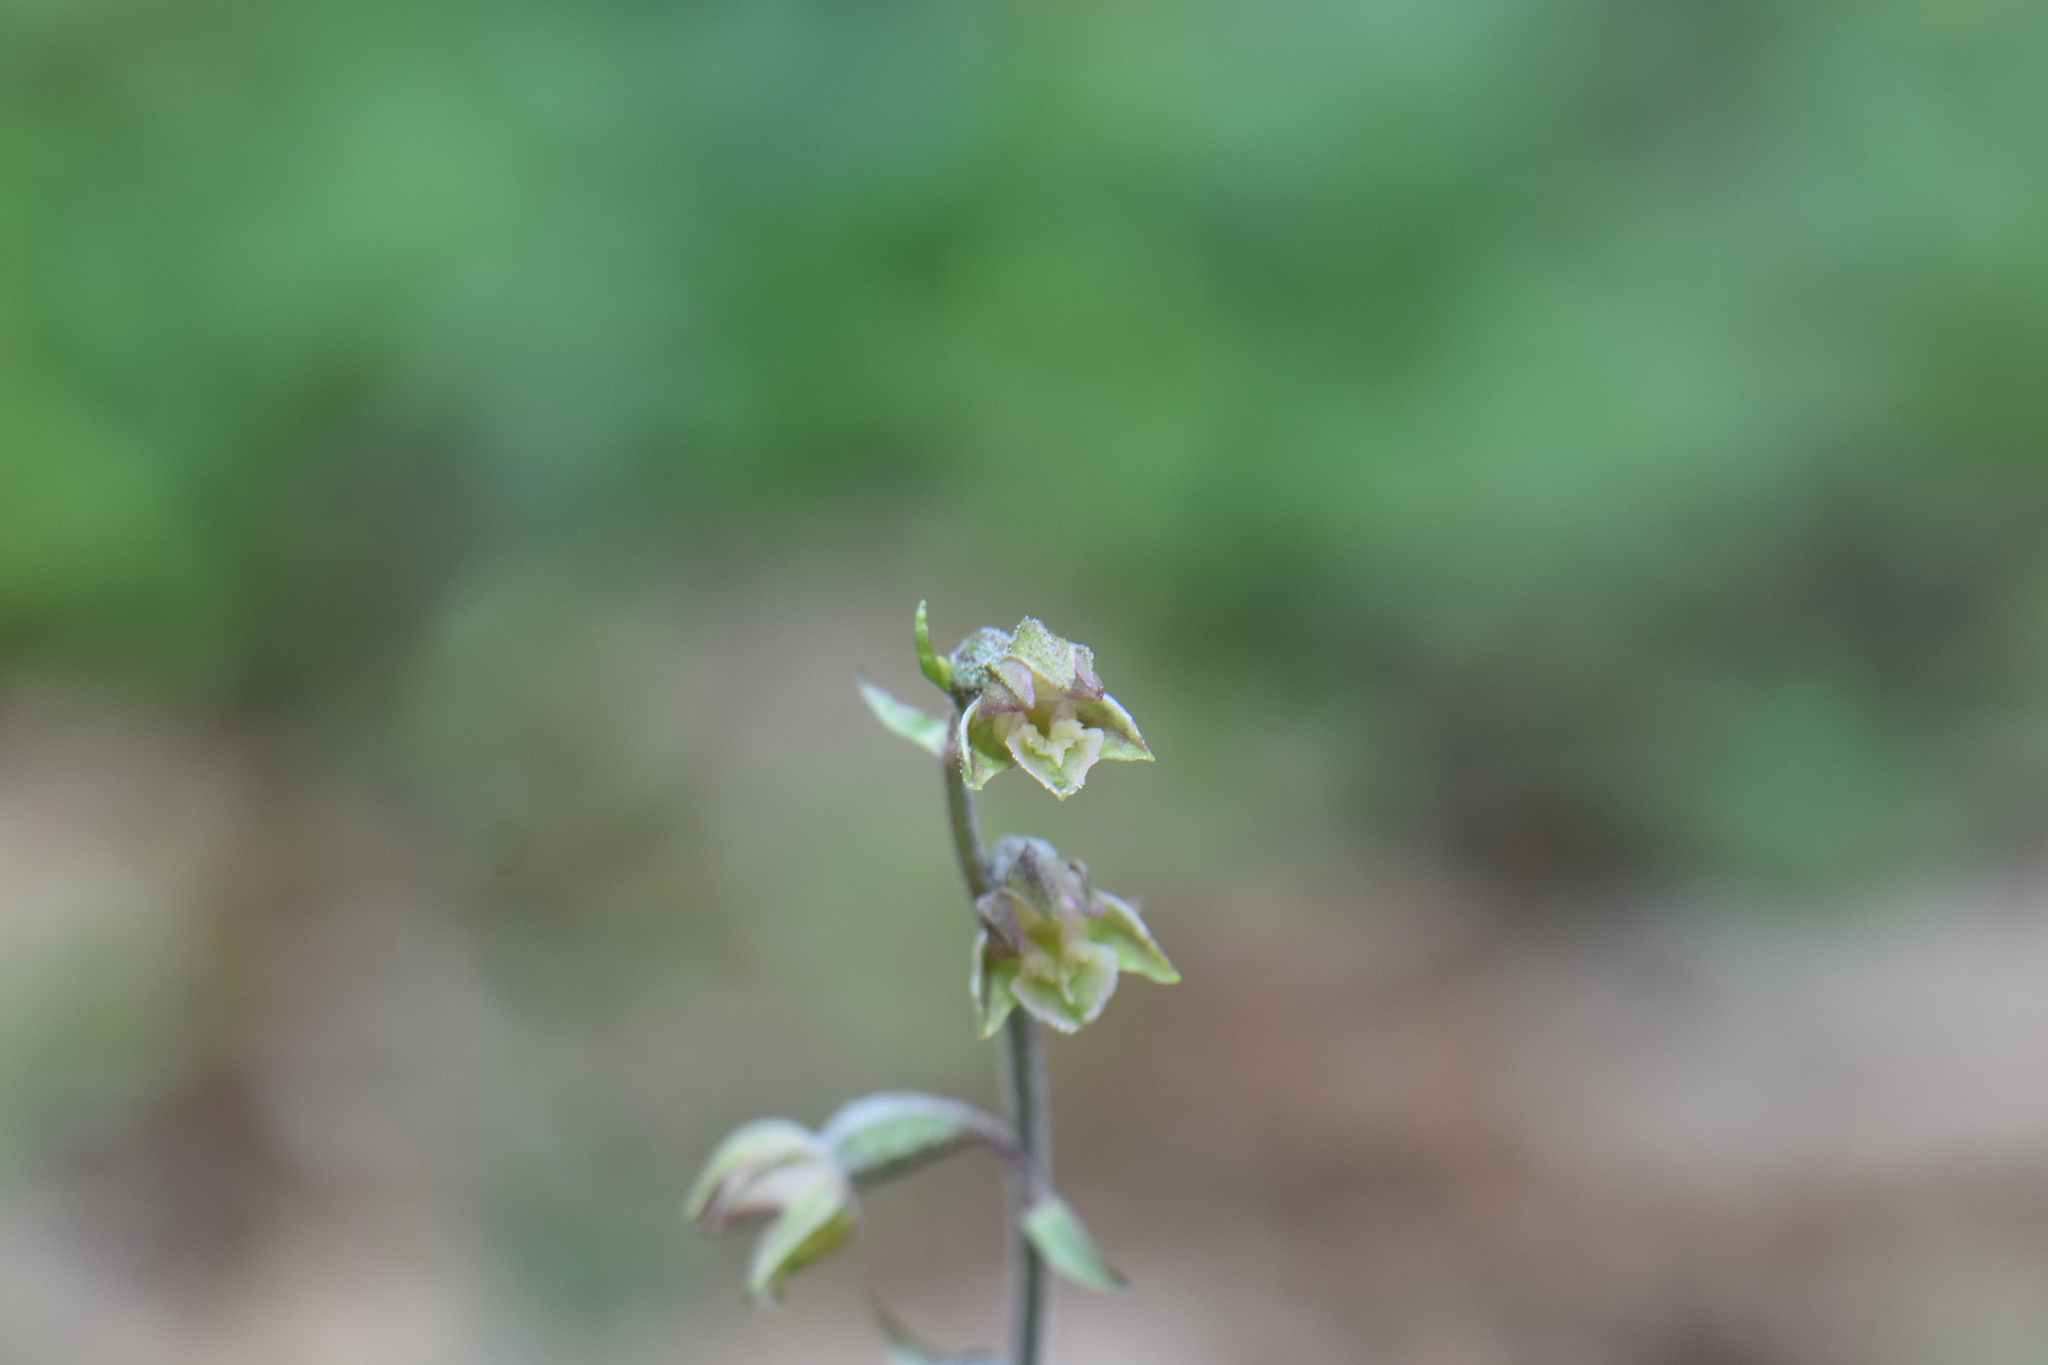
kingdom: Plantae
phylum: Tracheophyta
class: Liliopsida
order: Asparagales
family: Orchidaceae
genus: Epipactis
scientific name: Epipactis microphylla
